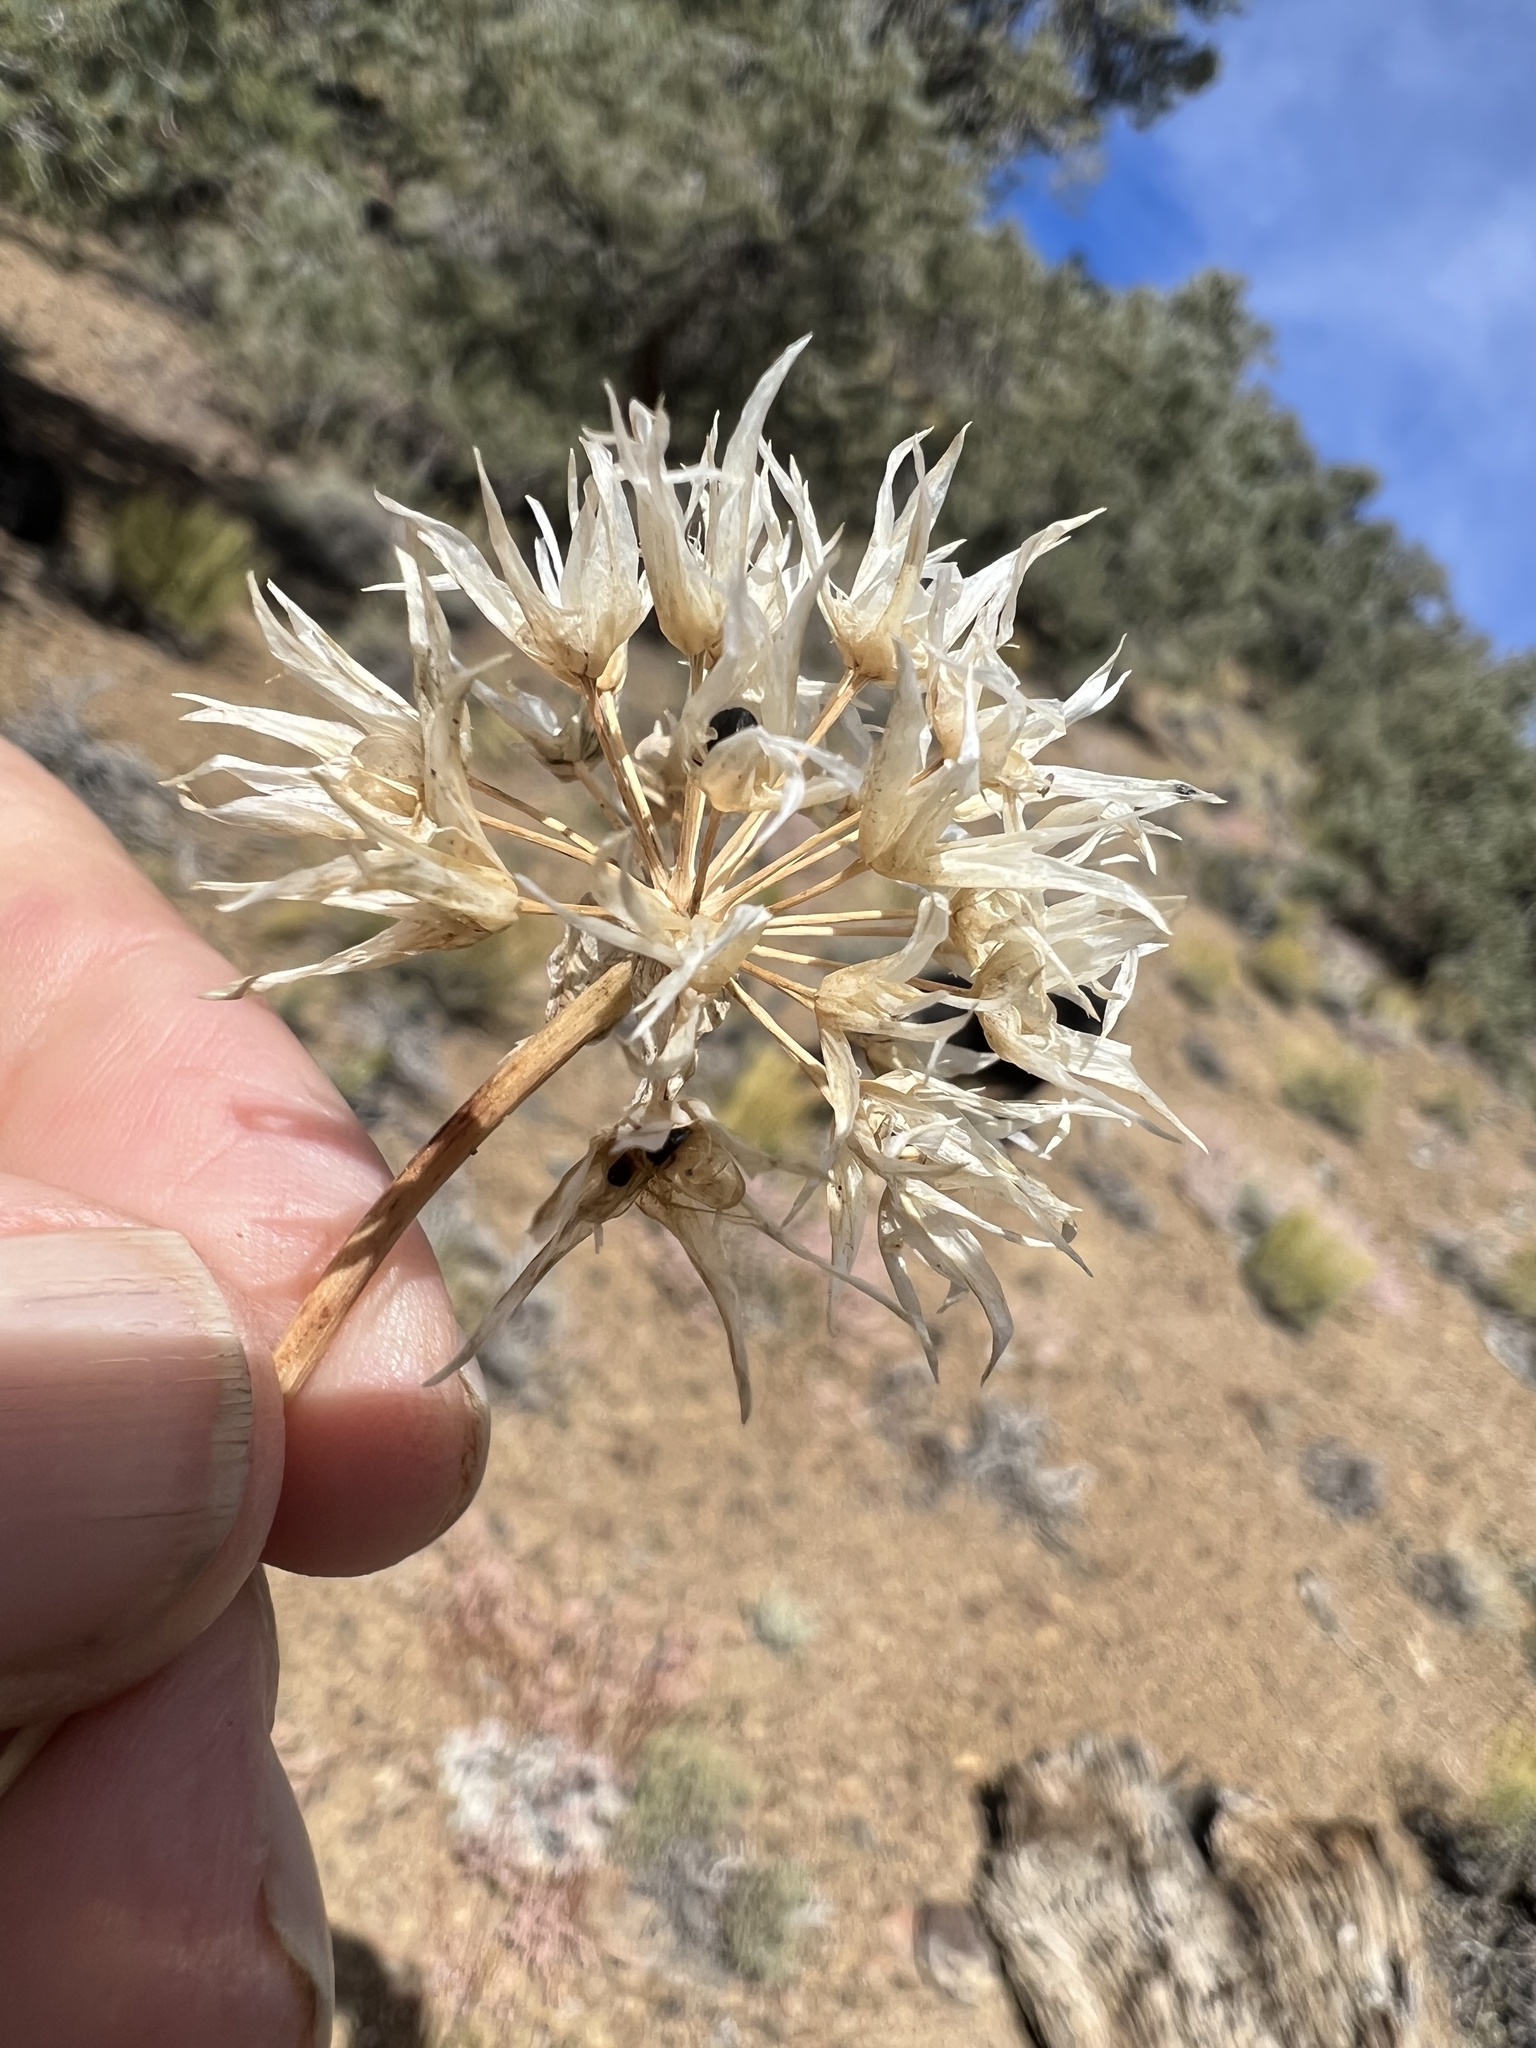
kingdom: Plantae
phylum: Tracheophyta
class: Liliopsida
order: Asparagales
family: Amaryllidaceae
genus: Allium
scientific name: Allium atrorubens
